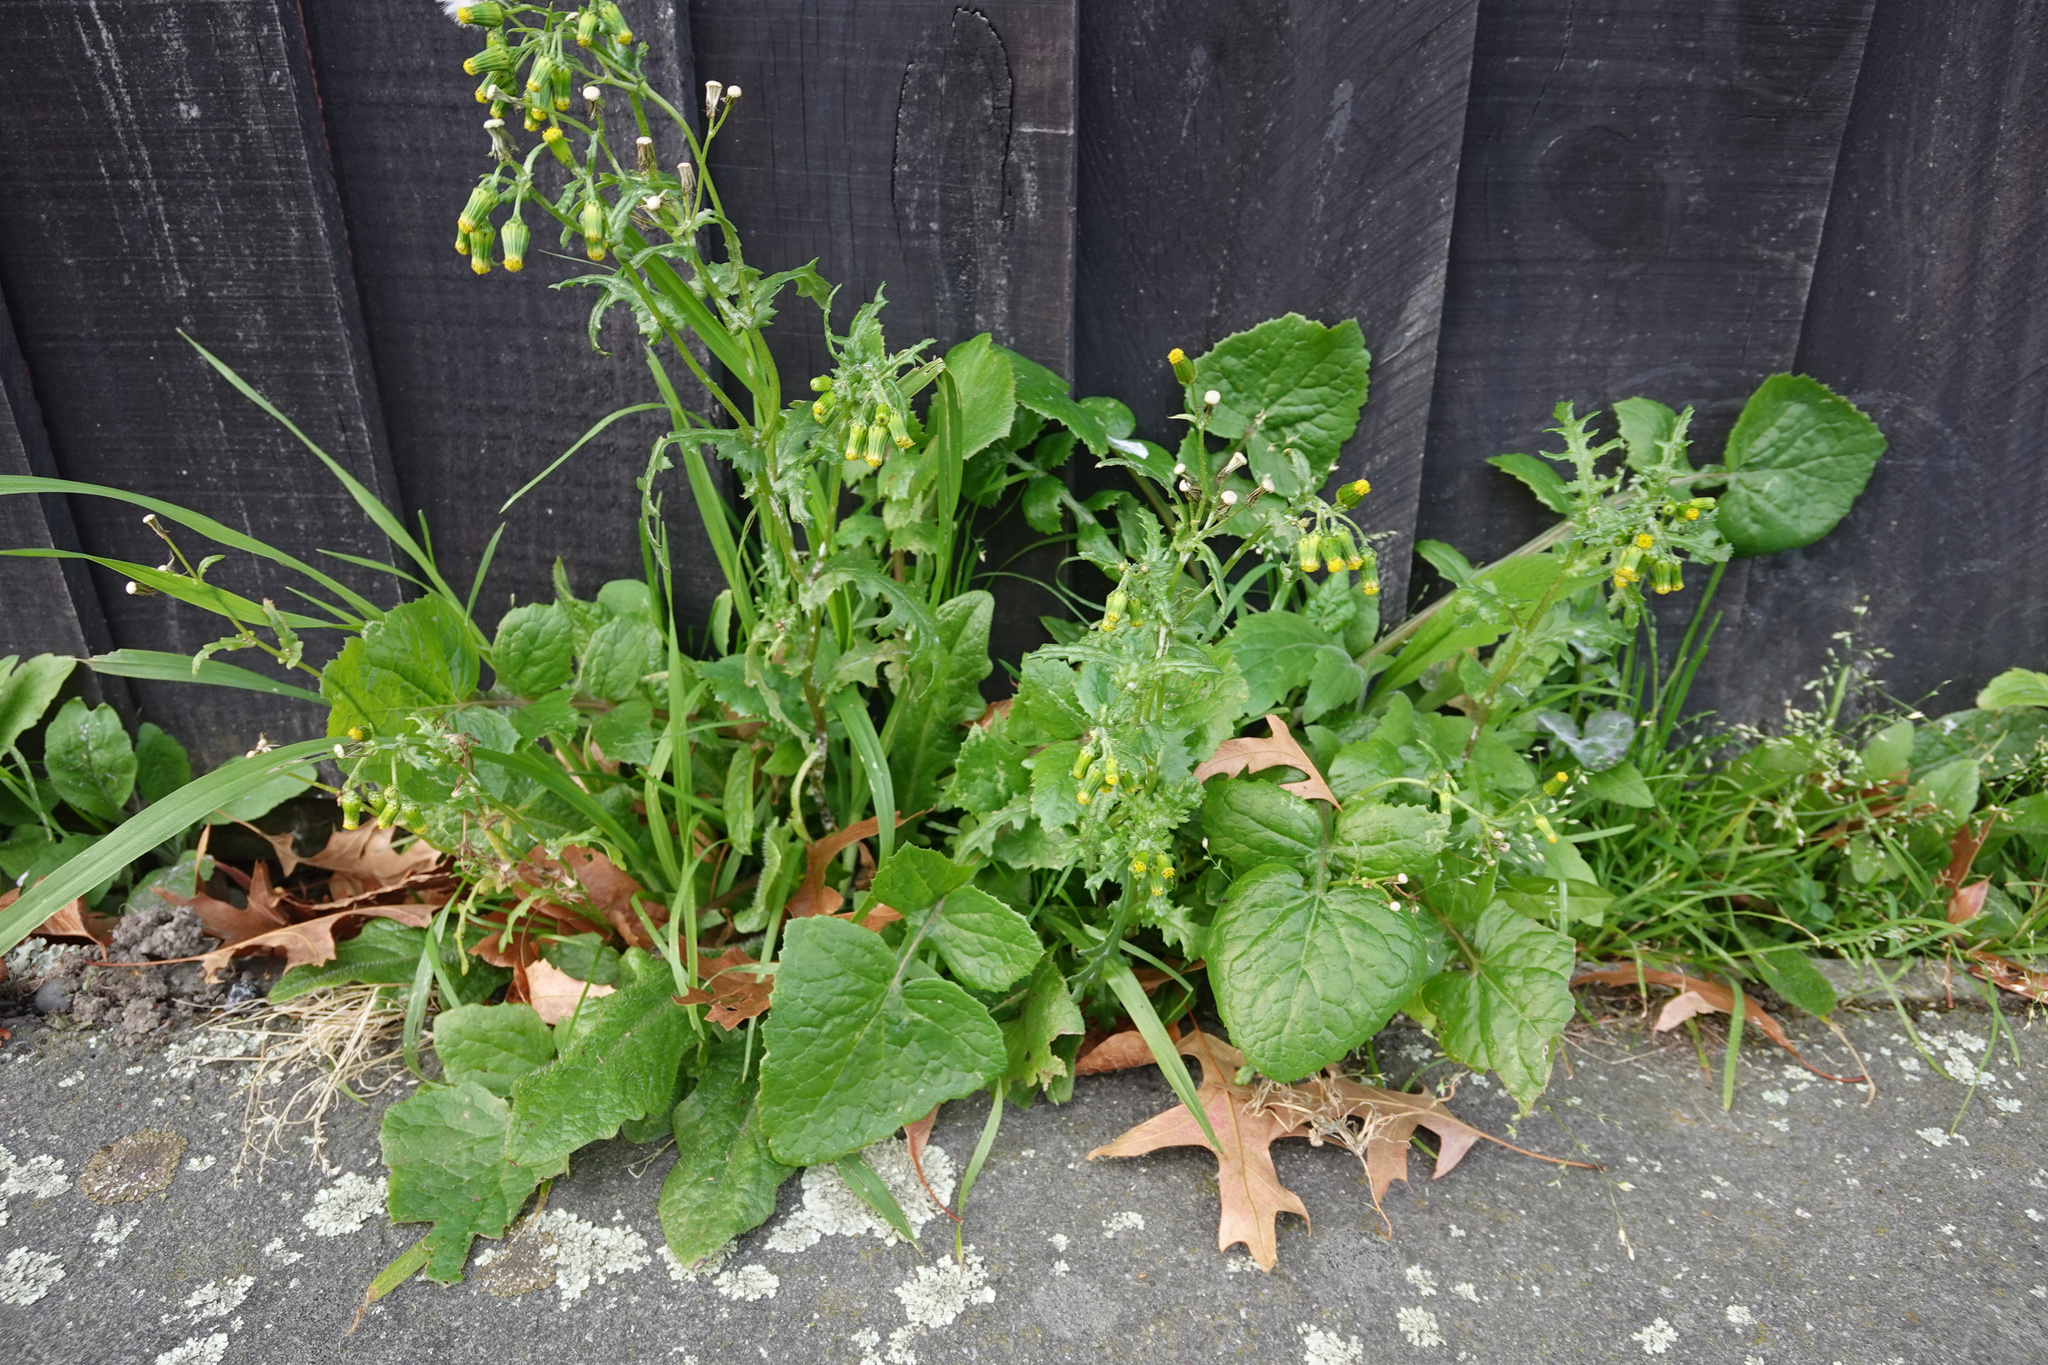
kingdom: Plantae
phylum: Tracheophyta
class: Magnoliopsida
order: Asterales
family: Asteraceae
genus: Senecio
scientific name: Senecio vulgaris
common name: Old-man-in-the-spring
